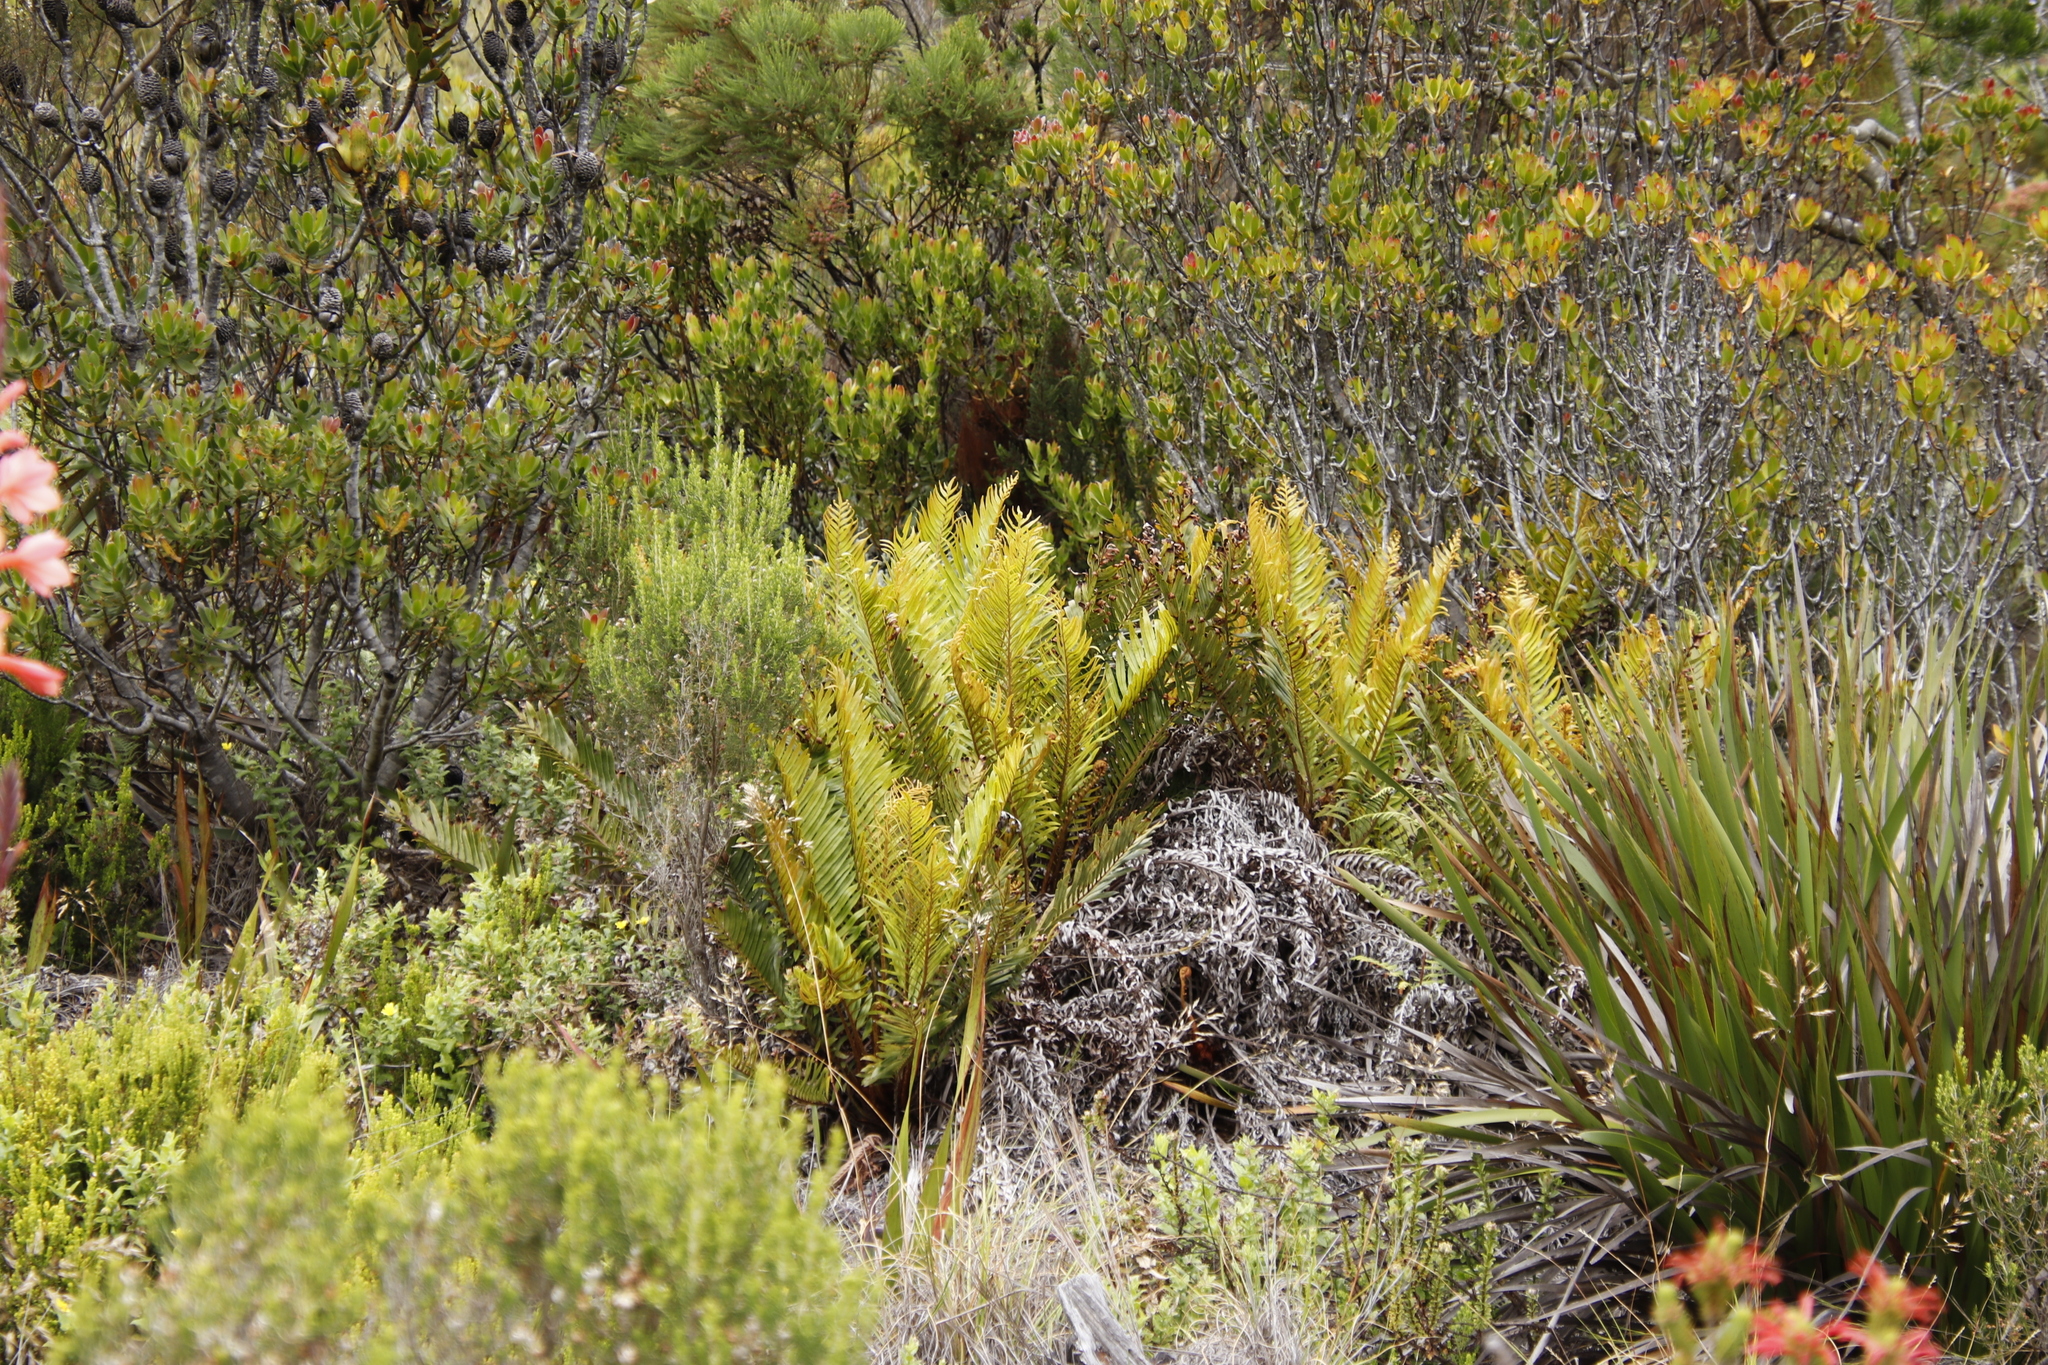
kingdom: Plantae
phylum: Tracheophyta
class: Polypodiopsida
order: Polypodiales
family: Blechnaceae
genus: Lomariocycas
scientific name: Lomariocycas tabularis
